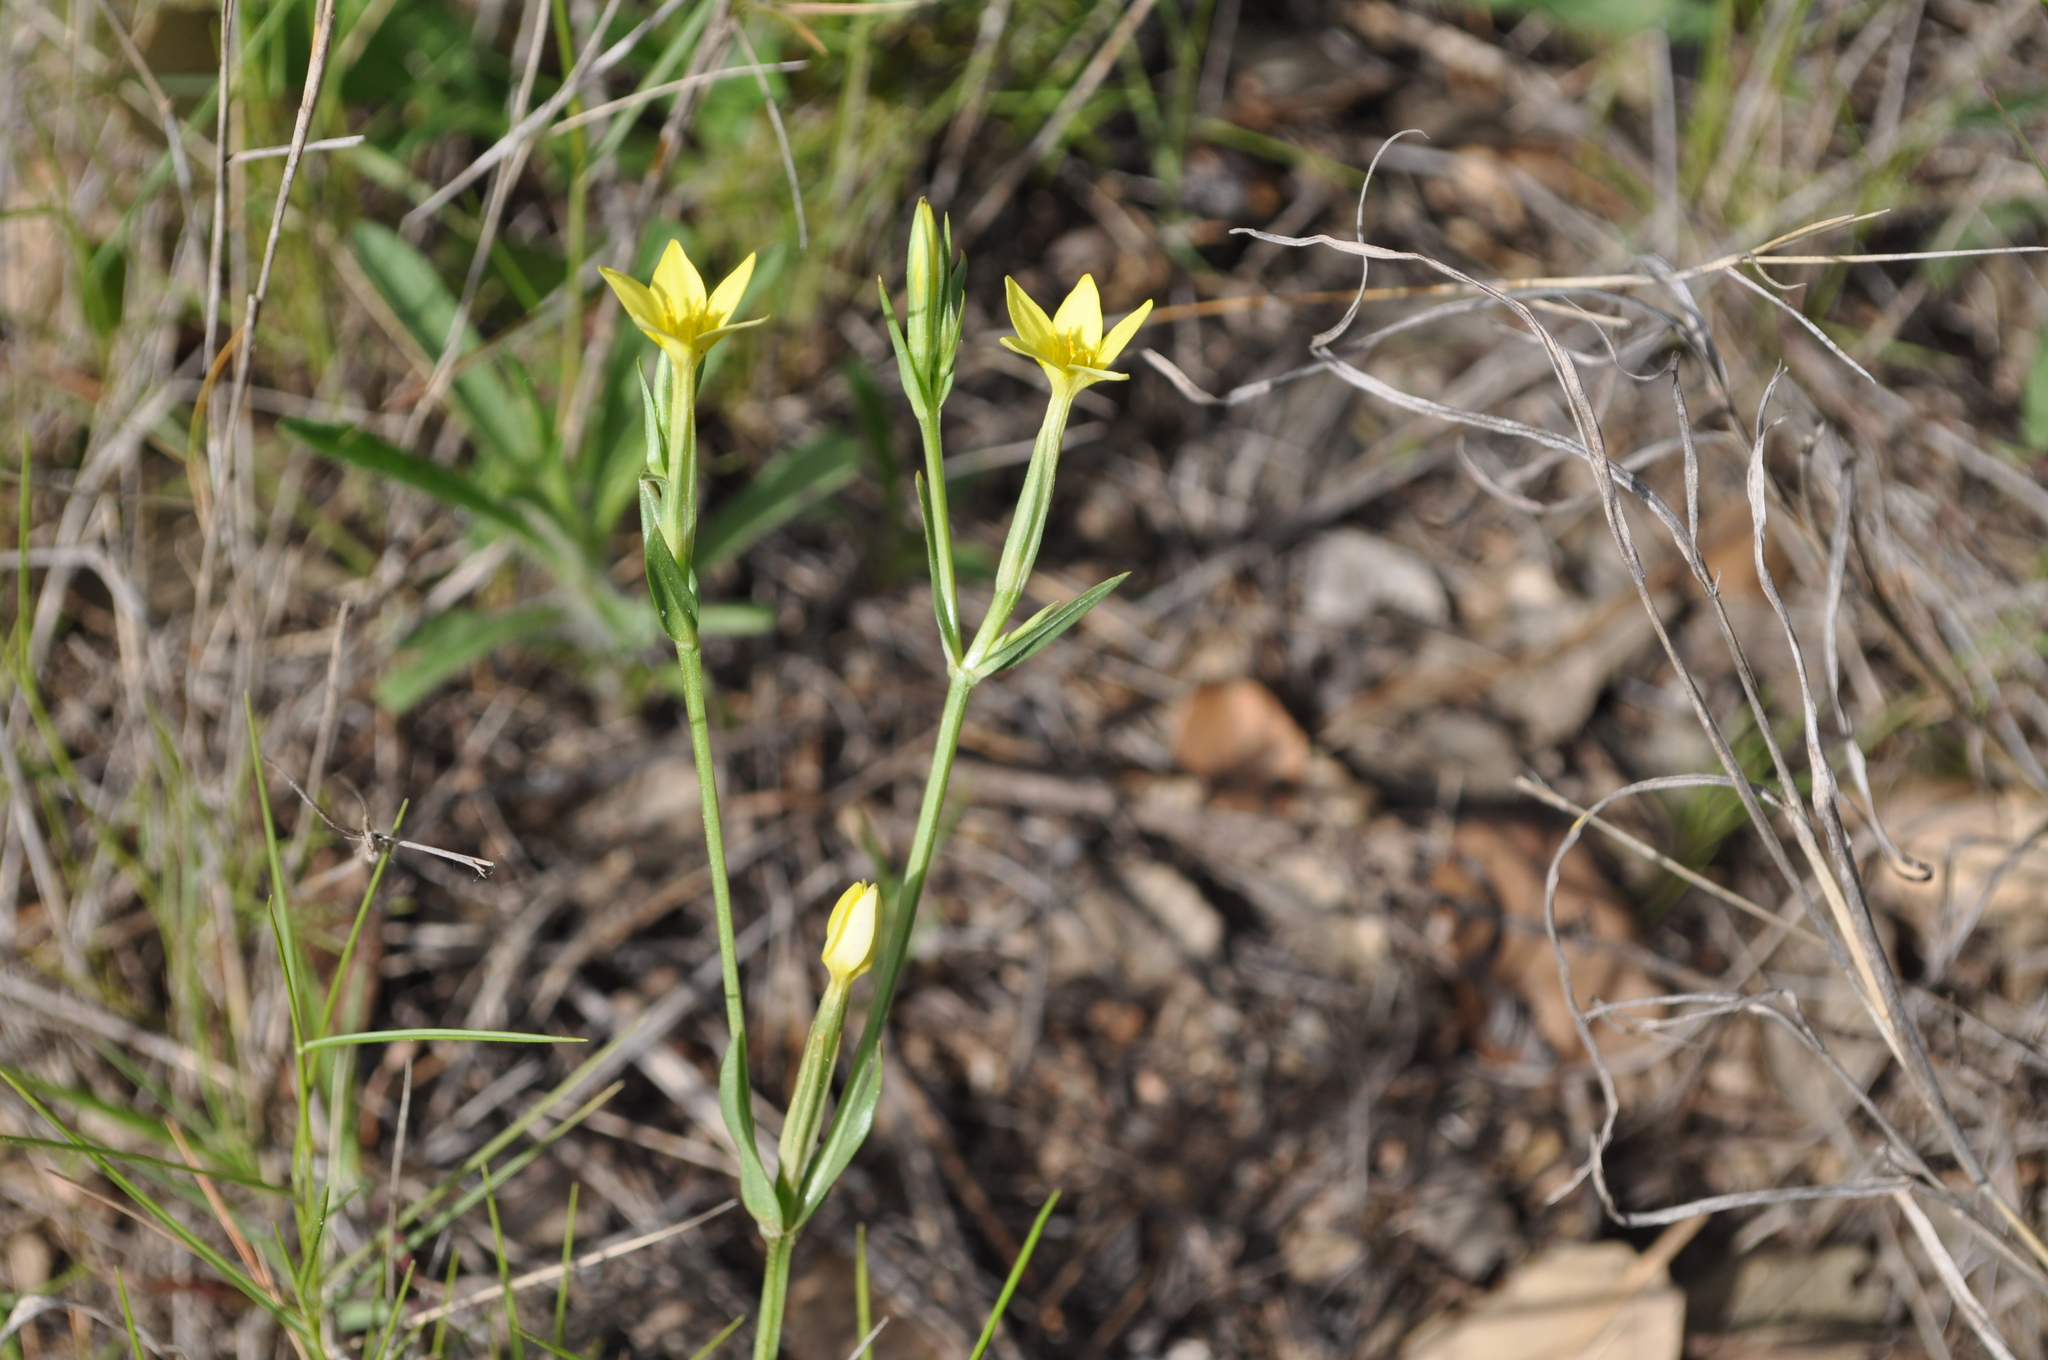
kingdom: Plantae
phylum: Tracheophyta
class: Magnoliopsida
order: Gentianales
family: Gentianaceae
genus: Centaurium
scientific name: Centaurium maritimum
